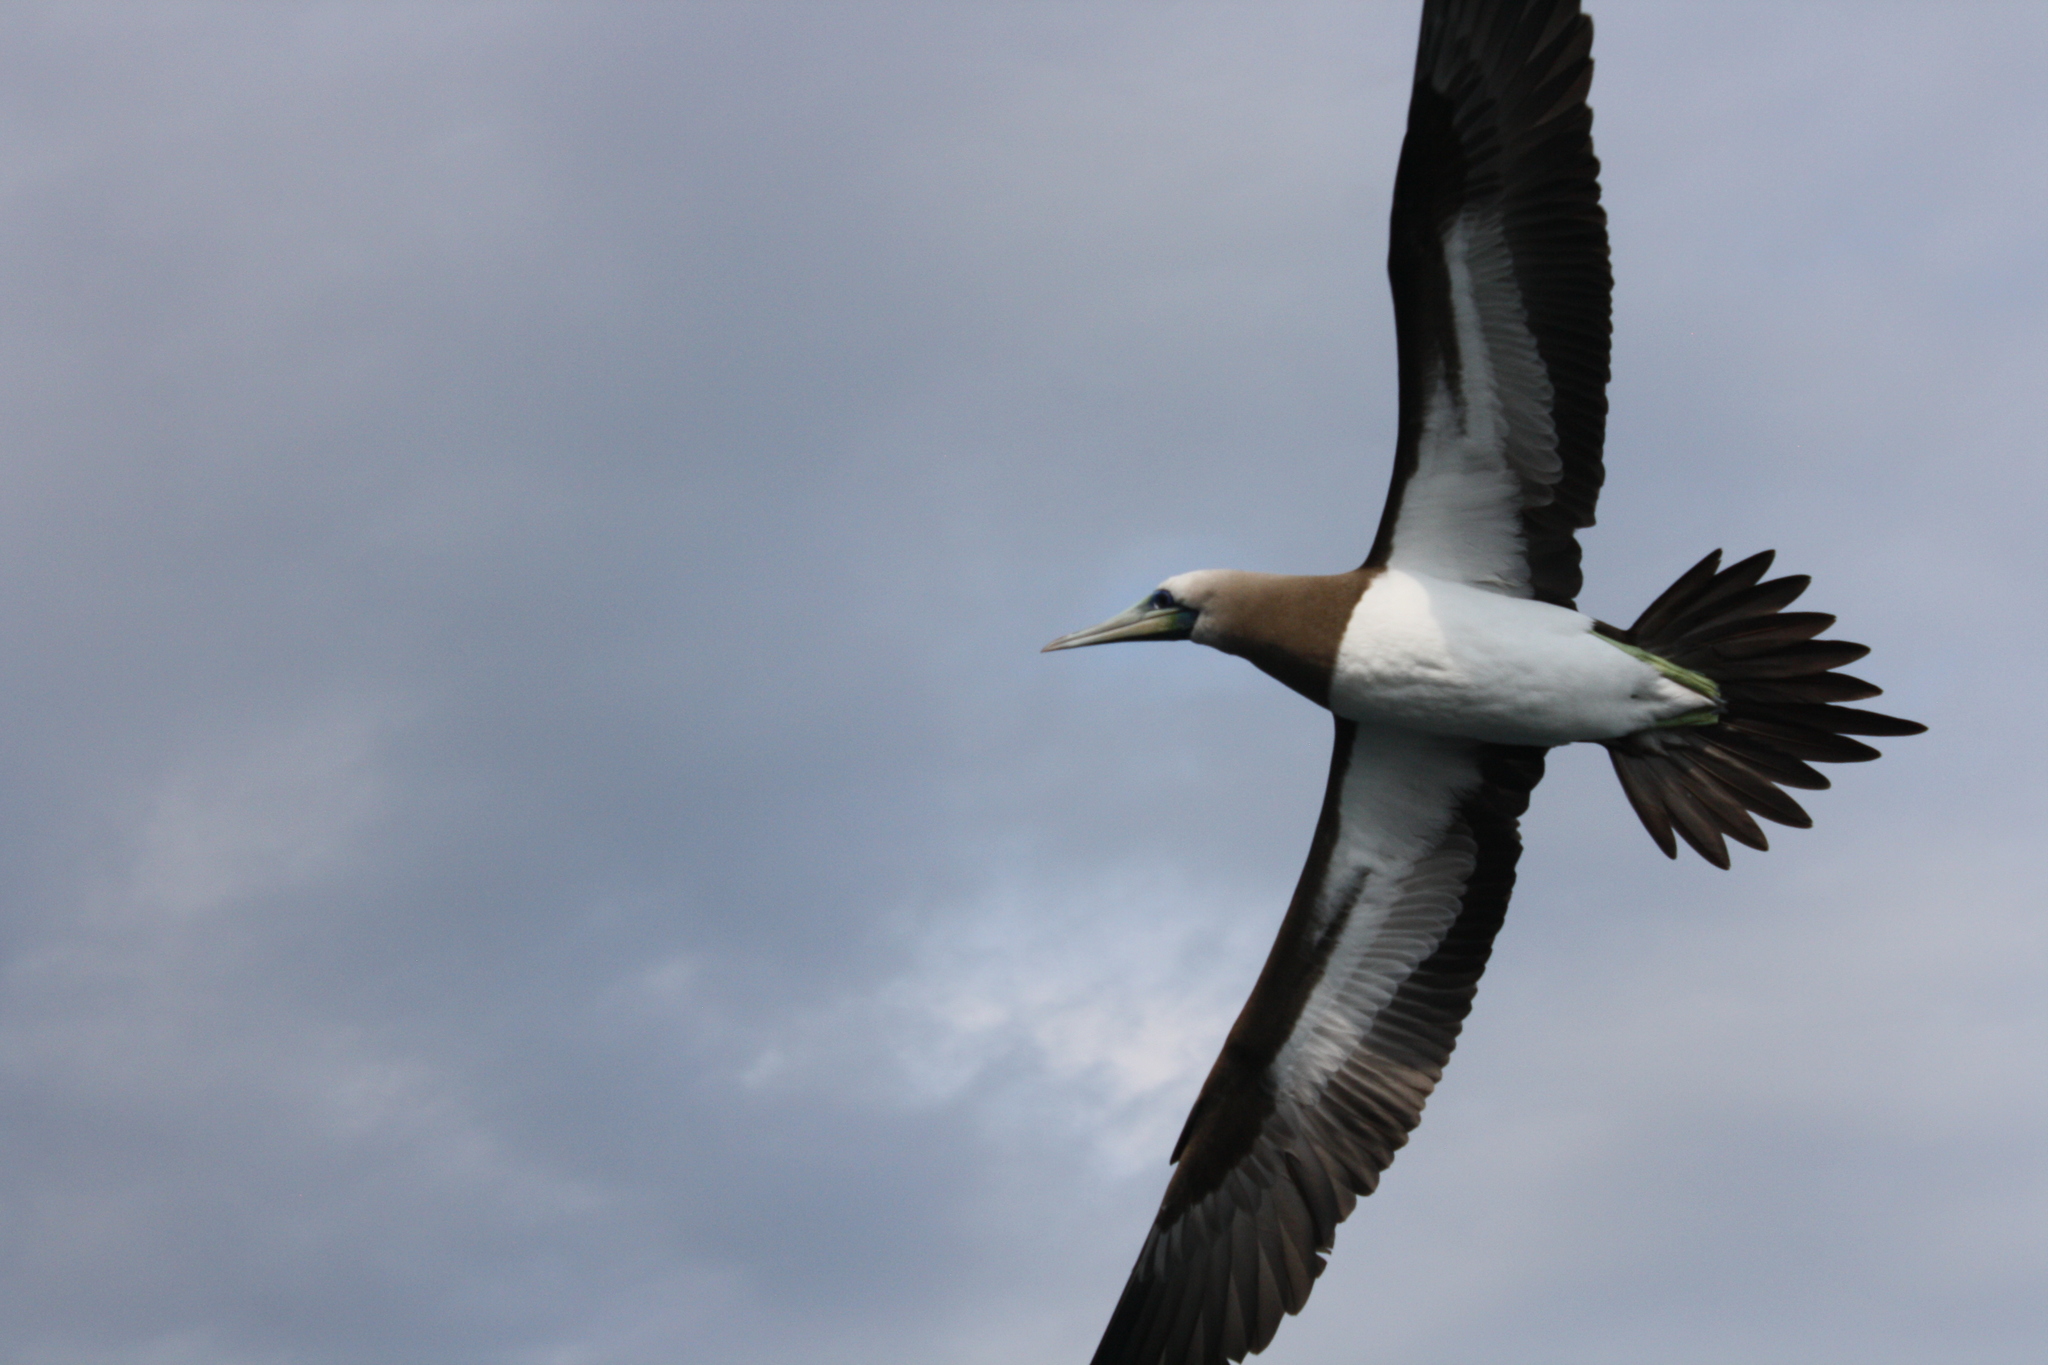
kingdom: Animalia
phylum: Chordata
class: Aves
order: Suliformes
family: Sulidae
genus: Sula
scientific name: Sula leucogaster
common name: Brown booby
